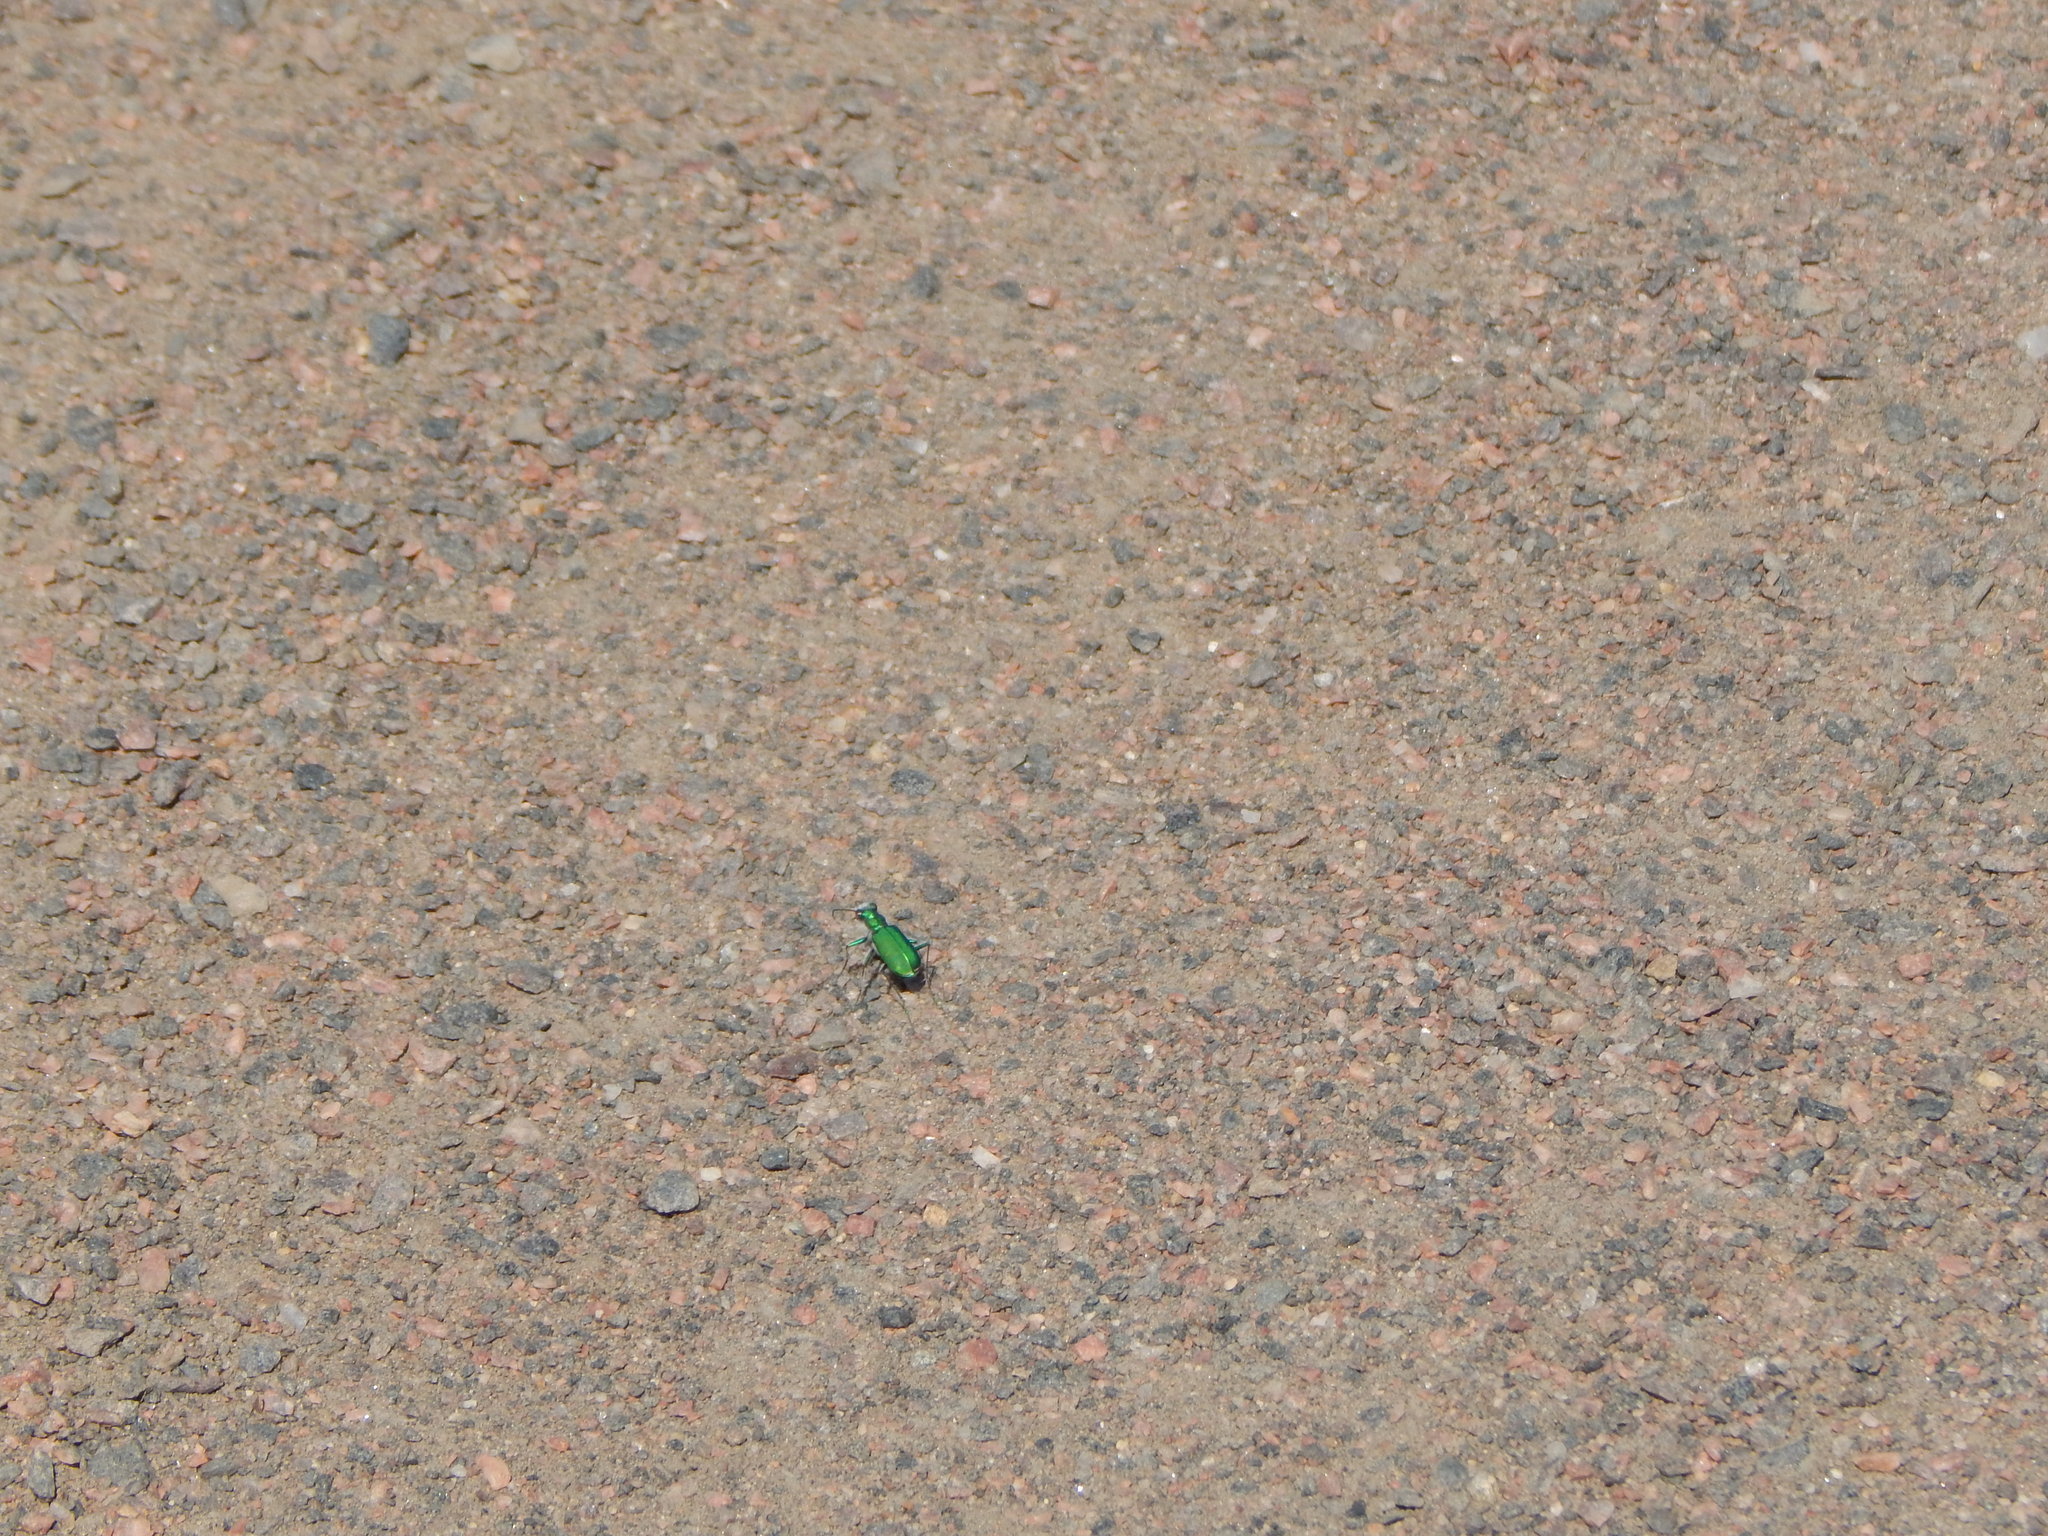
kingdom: Animalia
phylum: Arthropoda
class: Insecta
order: Coleoptera
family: Carabidae
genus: Cicindela
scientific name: Cicindela denverensis
